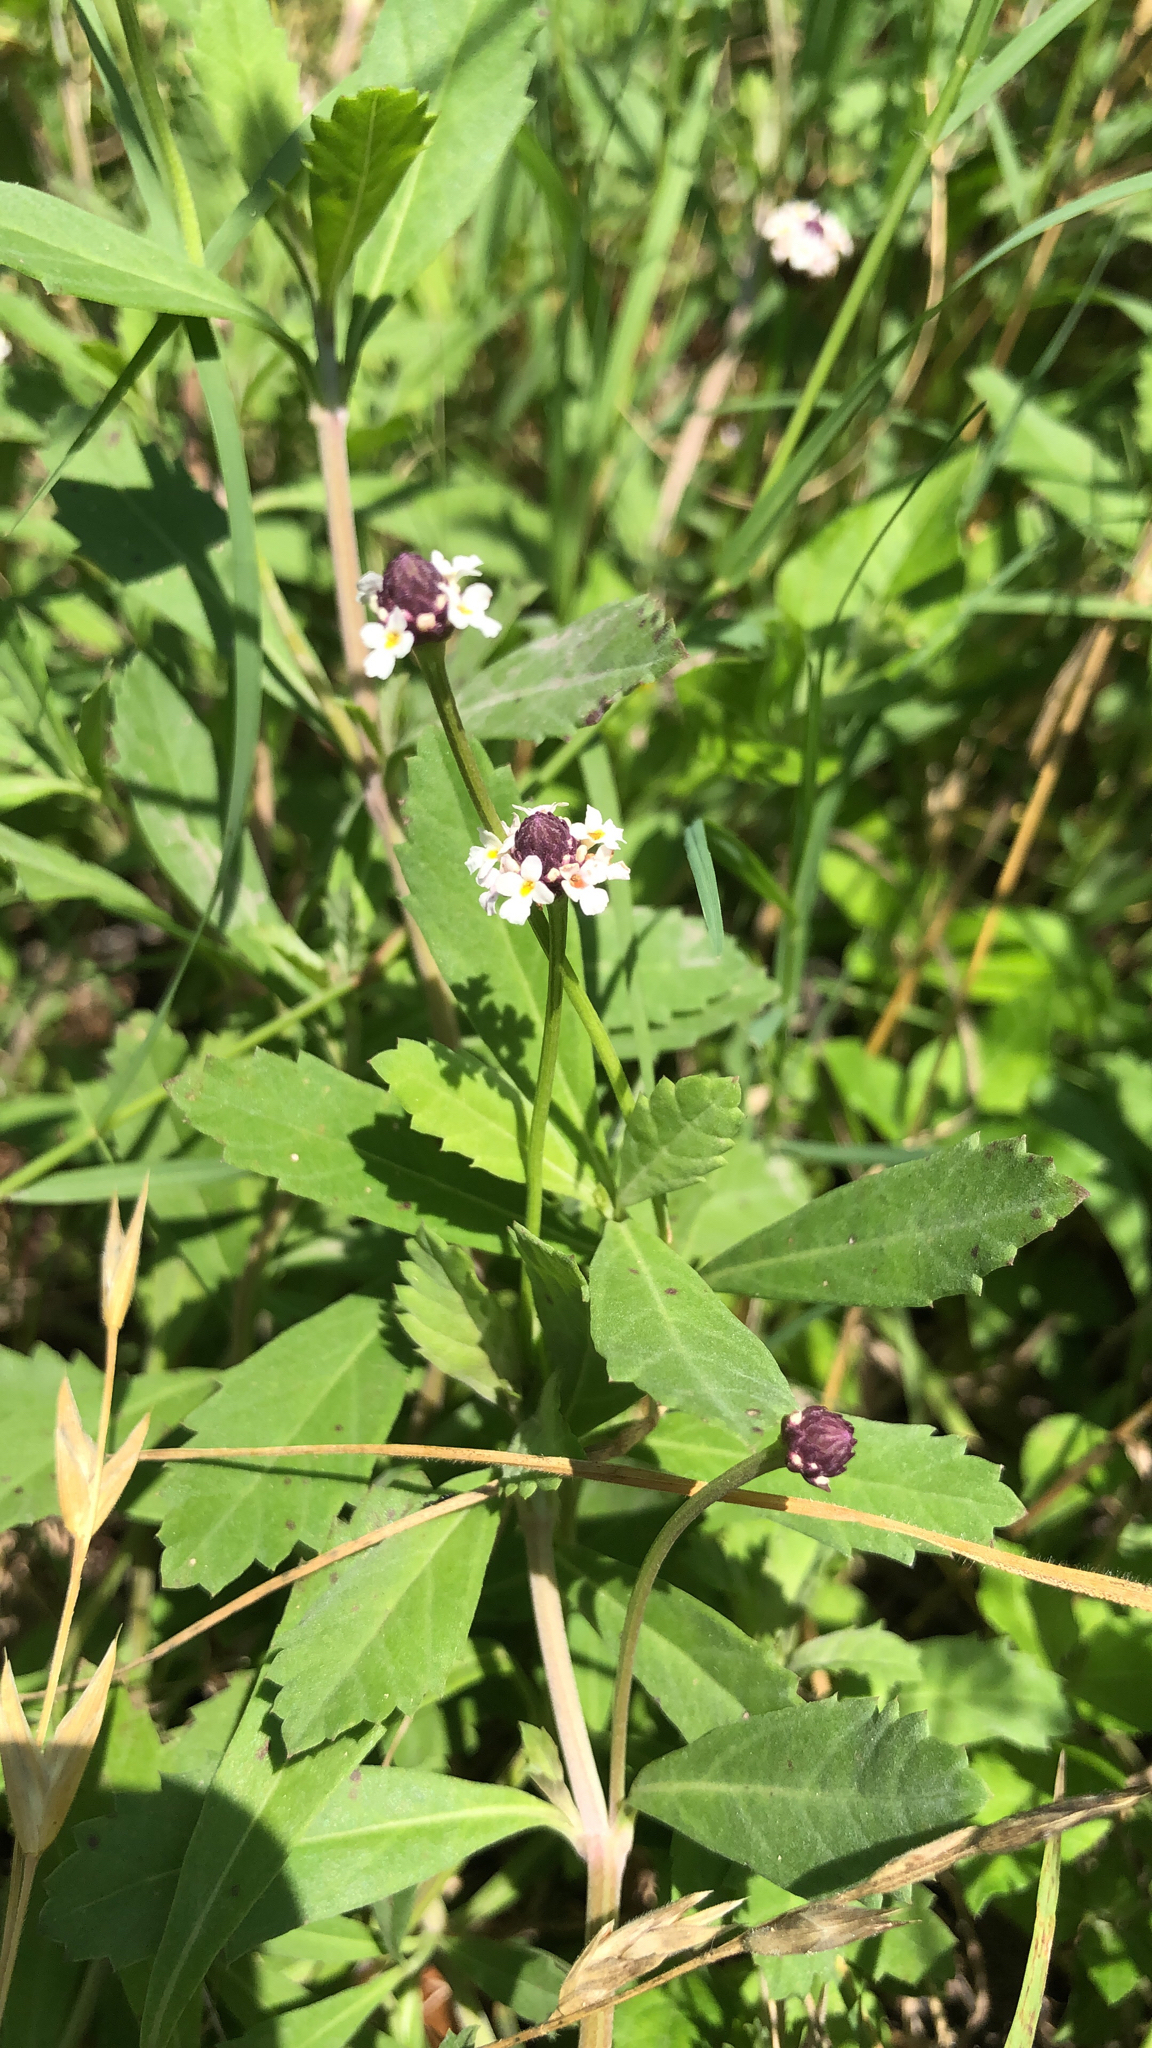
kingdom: Plantae
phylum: Tracheophyta
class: Magnoliopsida
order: Lamiales
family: Verbenaceae
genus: Phyla
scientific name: Phyla nodiflora
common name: Frogfruit
